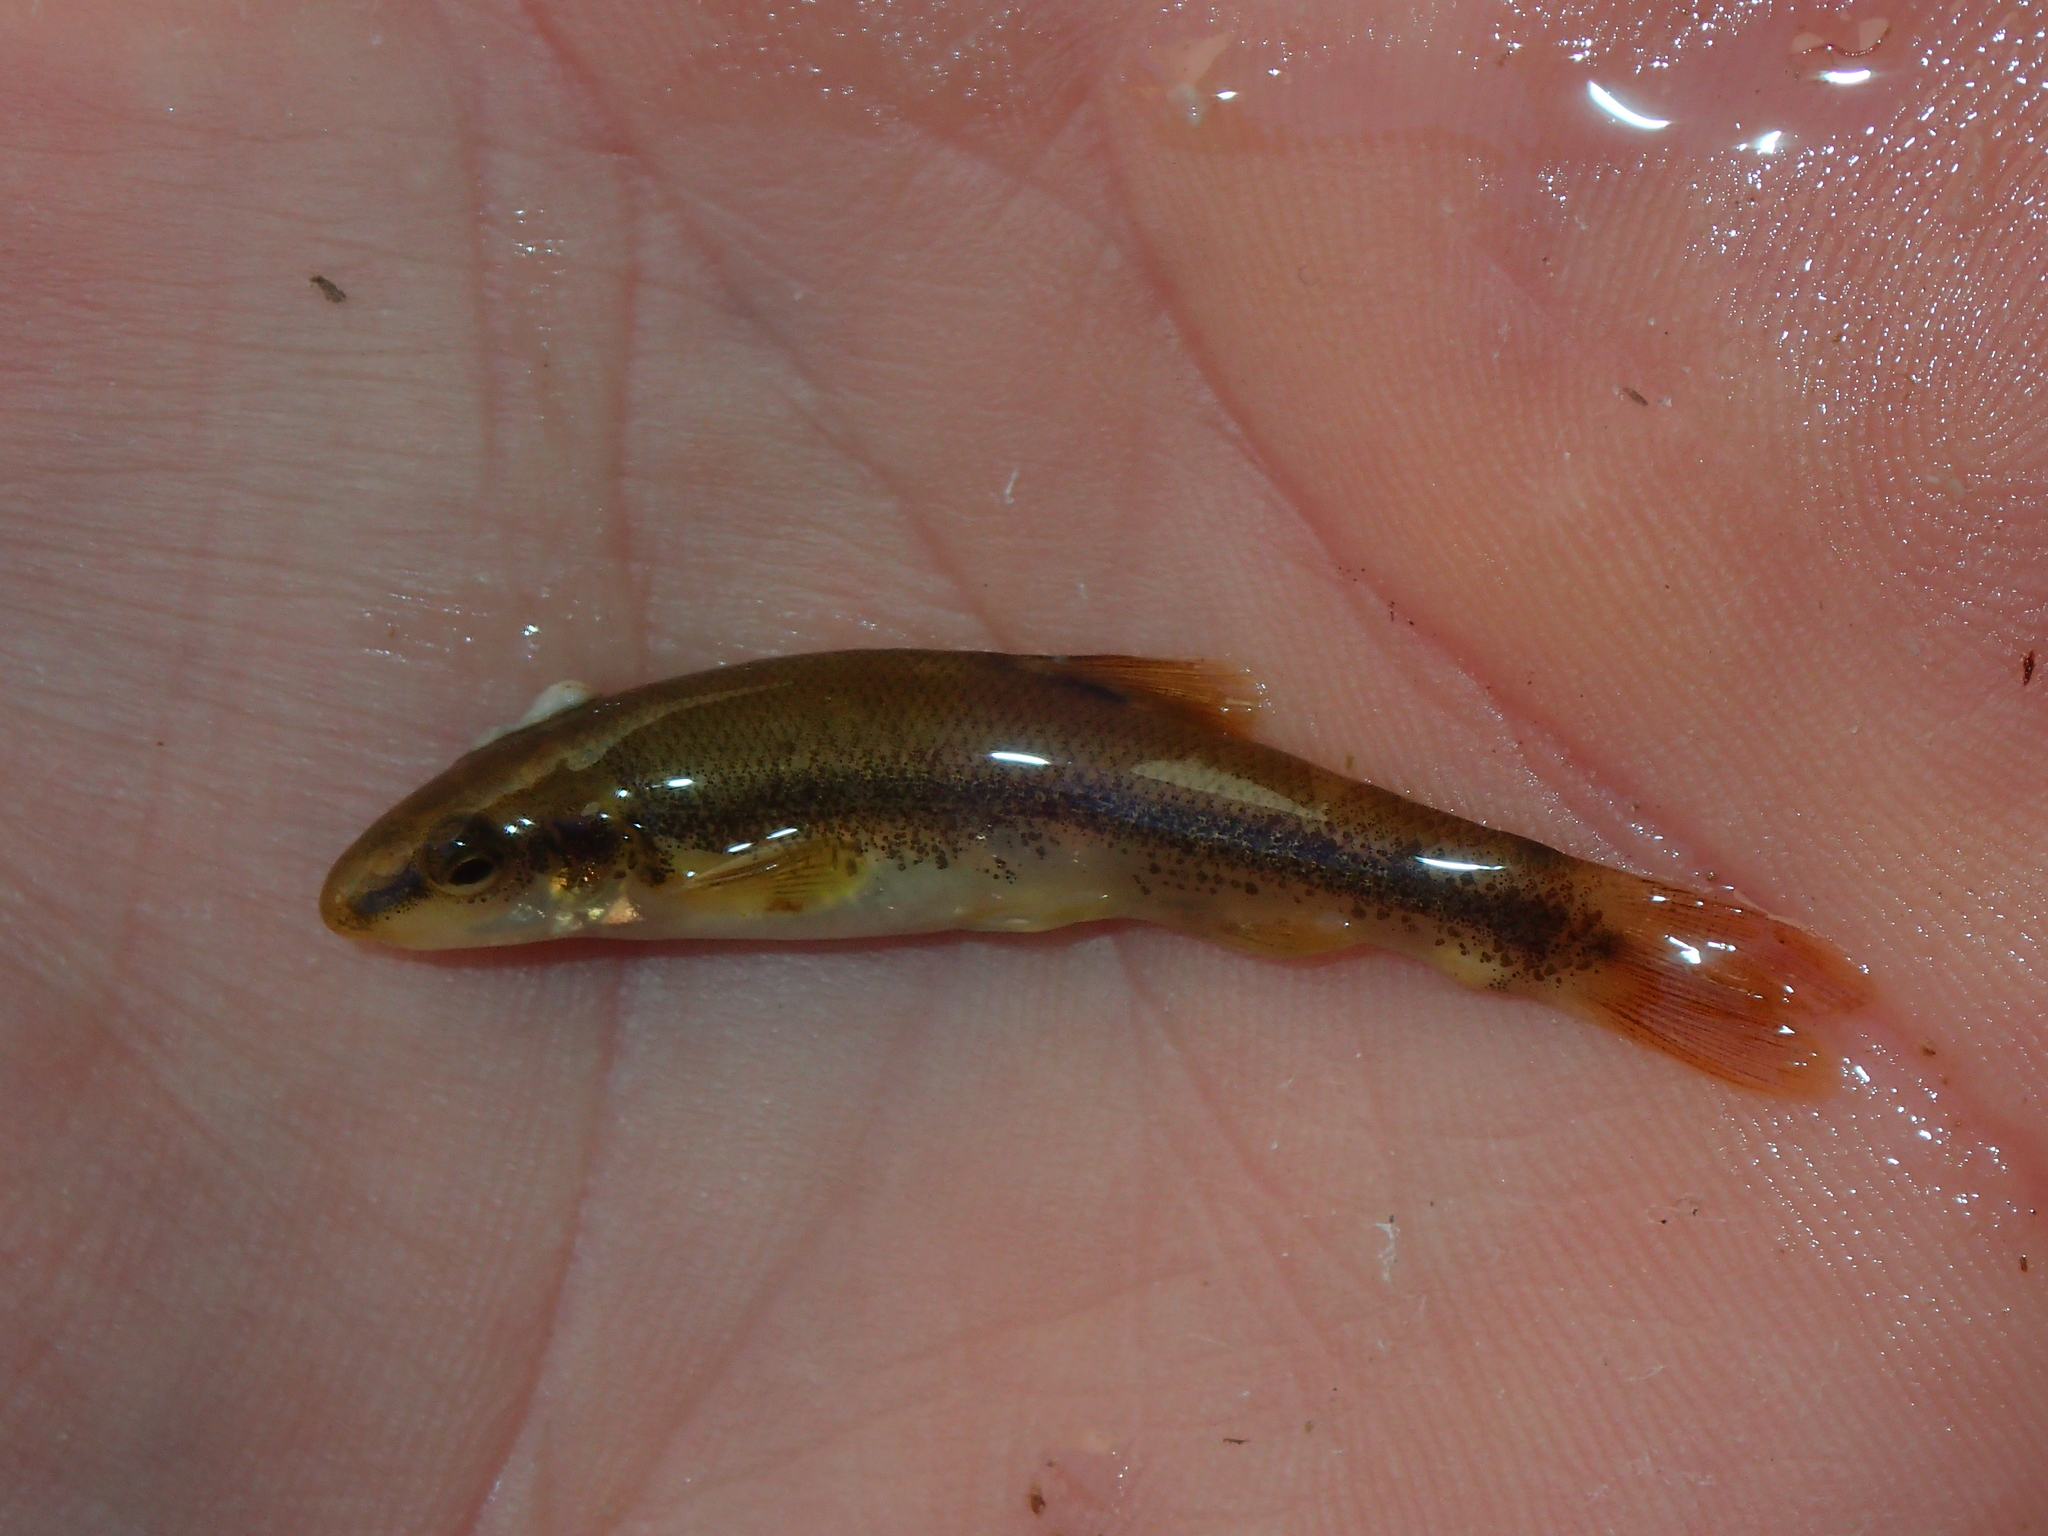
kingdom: Animalia
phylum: Chordata
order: Cypriniformes
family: Cyprinidae
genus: Rhinichthys
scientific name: Rhinichthys cataractae
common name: Longnose dace
